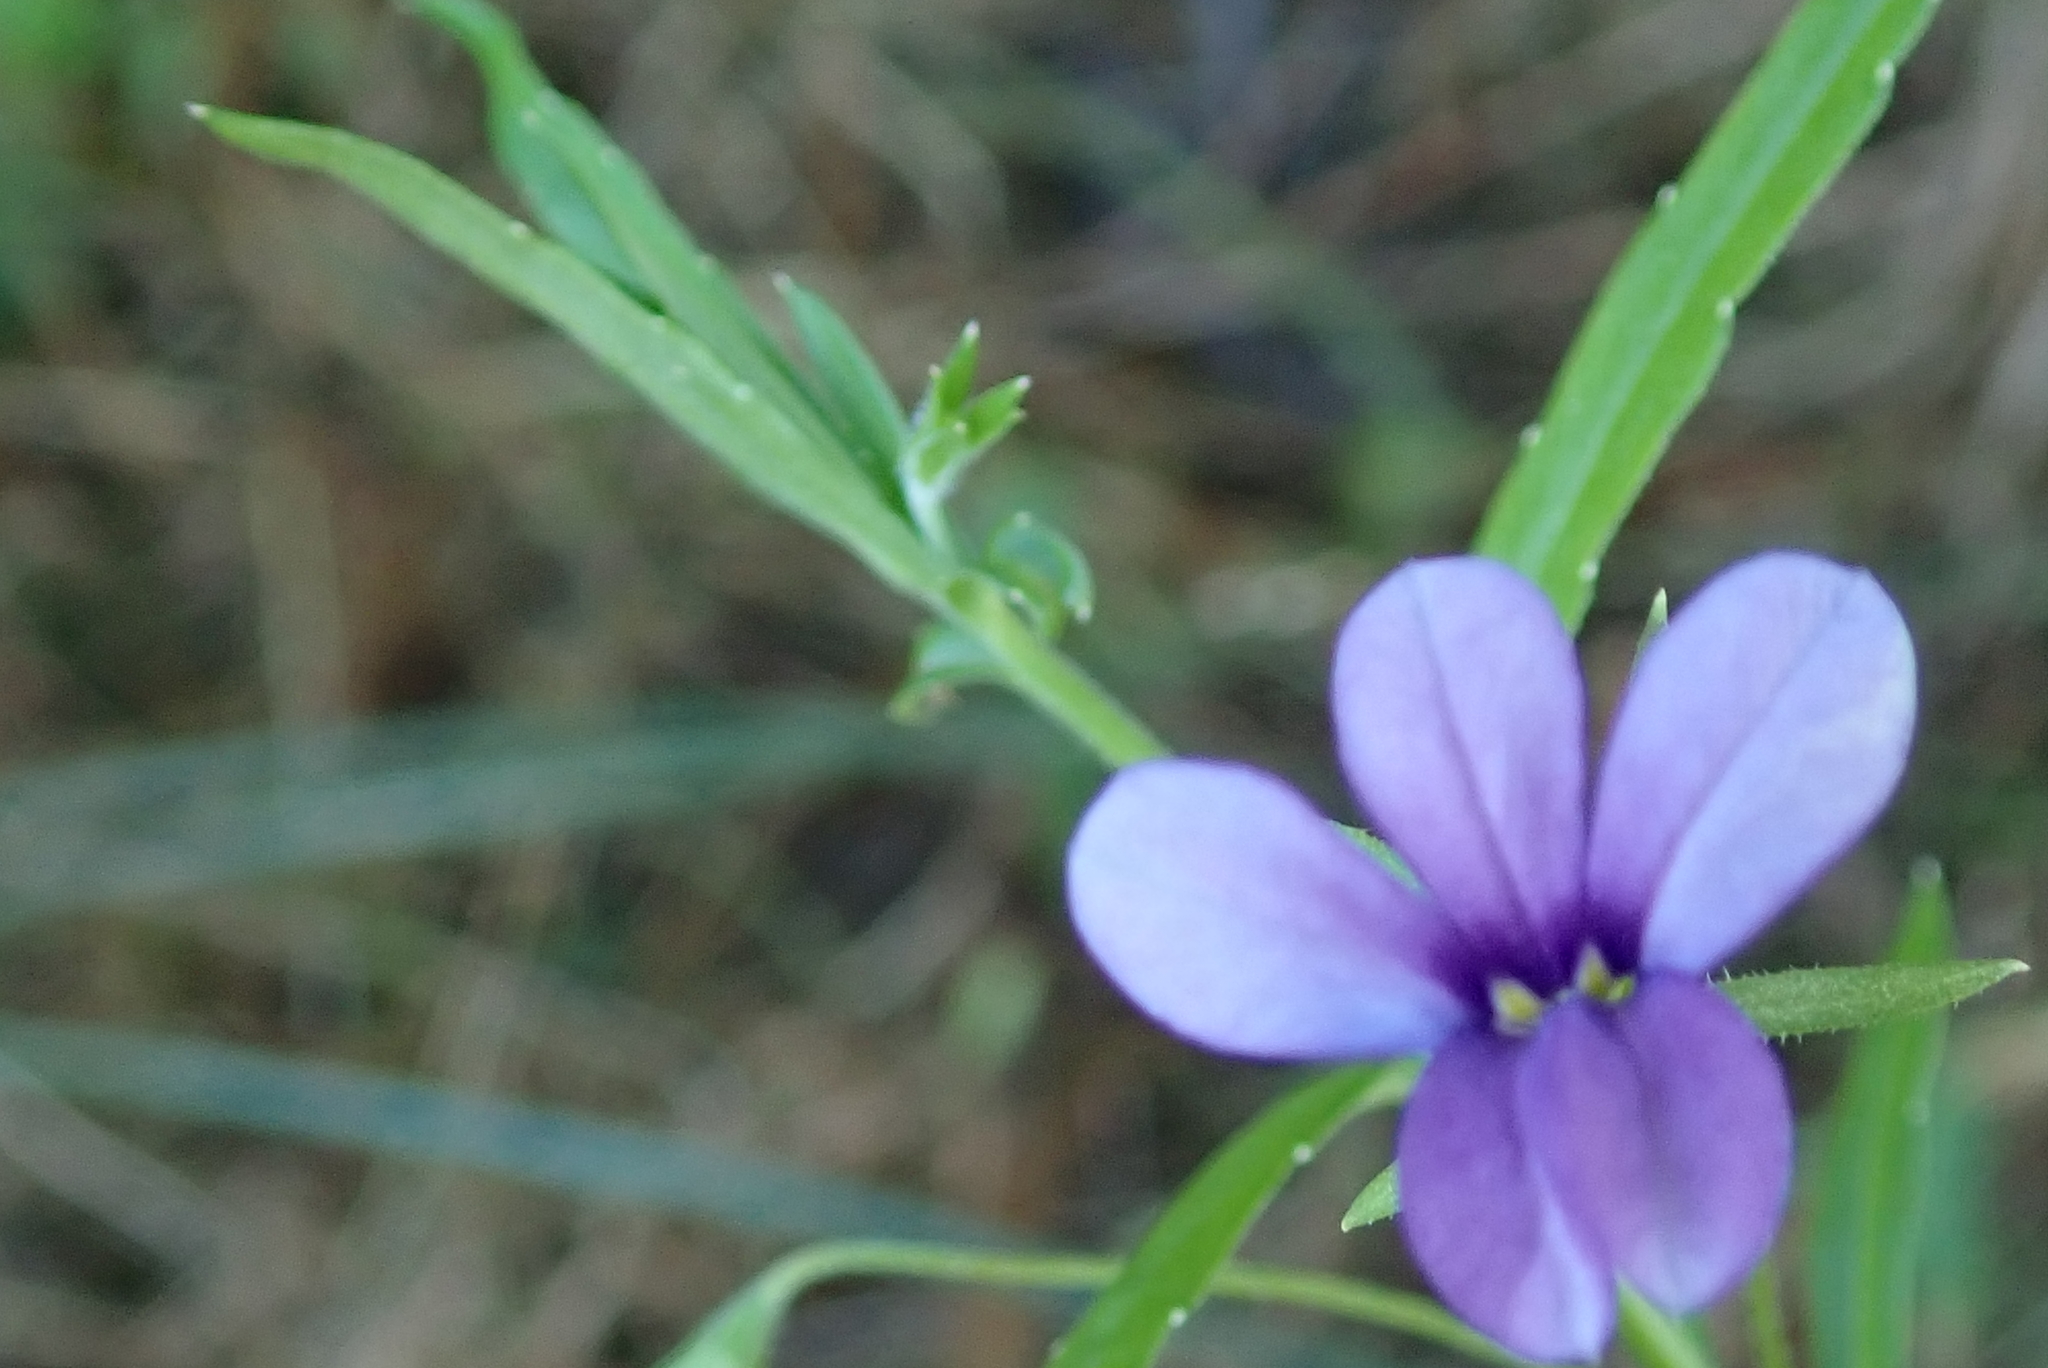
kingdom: Plantae
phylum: Tracheophyta
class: Magnoliopsida
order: Asterales
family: Campanulaceae
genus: Monopsis
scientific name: Monopsis stellarioides
